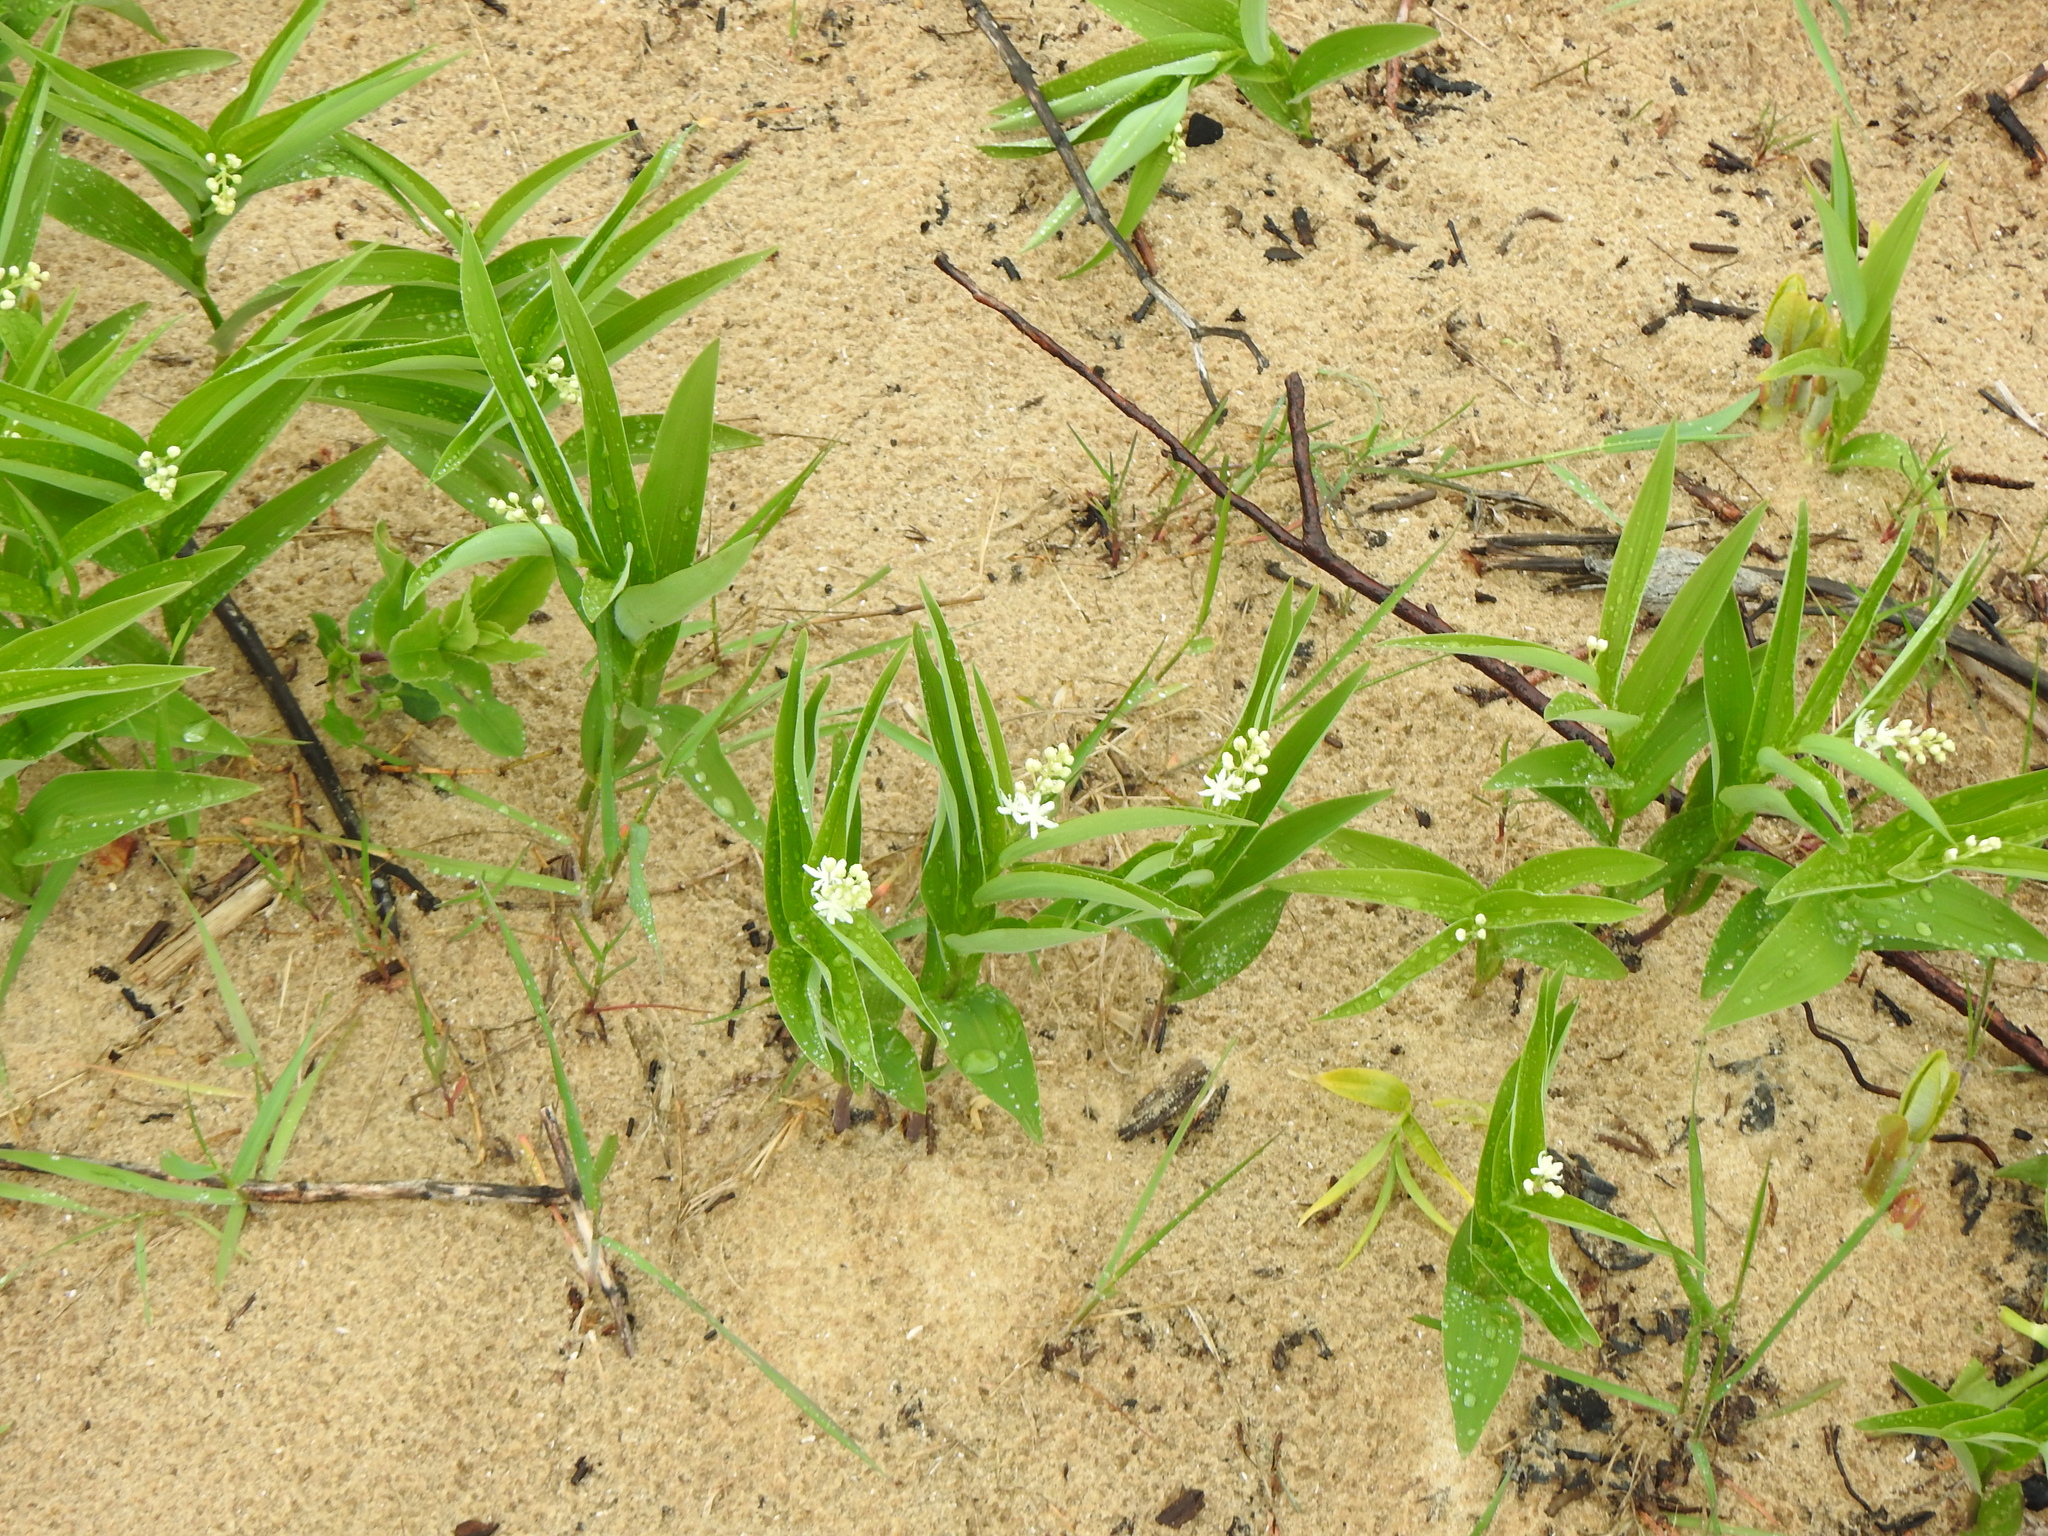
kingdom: Plantae
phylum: Tracheophyta
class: Liliopsida
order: Asparagales
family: Asparagaceae
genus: Maianthemum
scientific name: Maianthemum stellatum
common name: Little false solomon's seal
